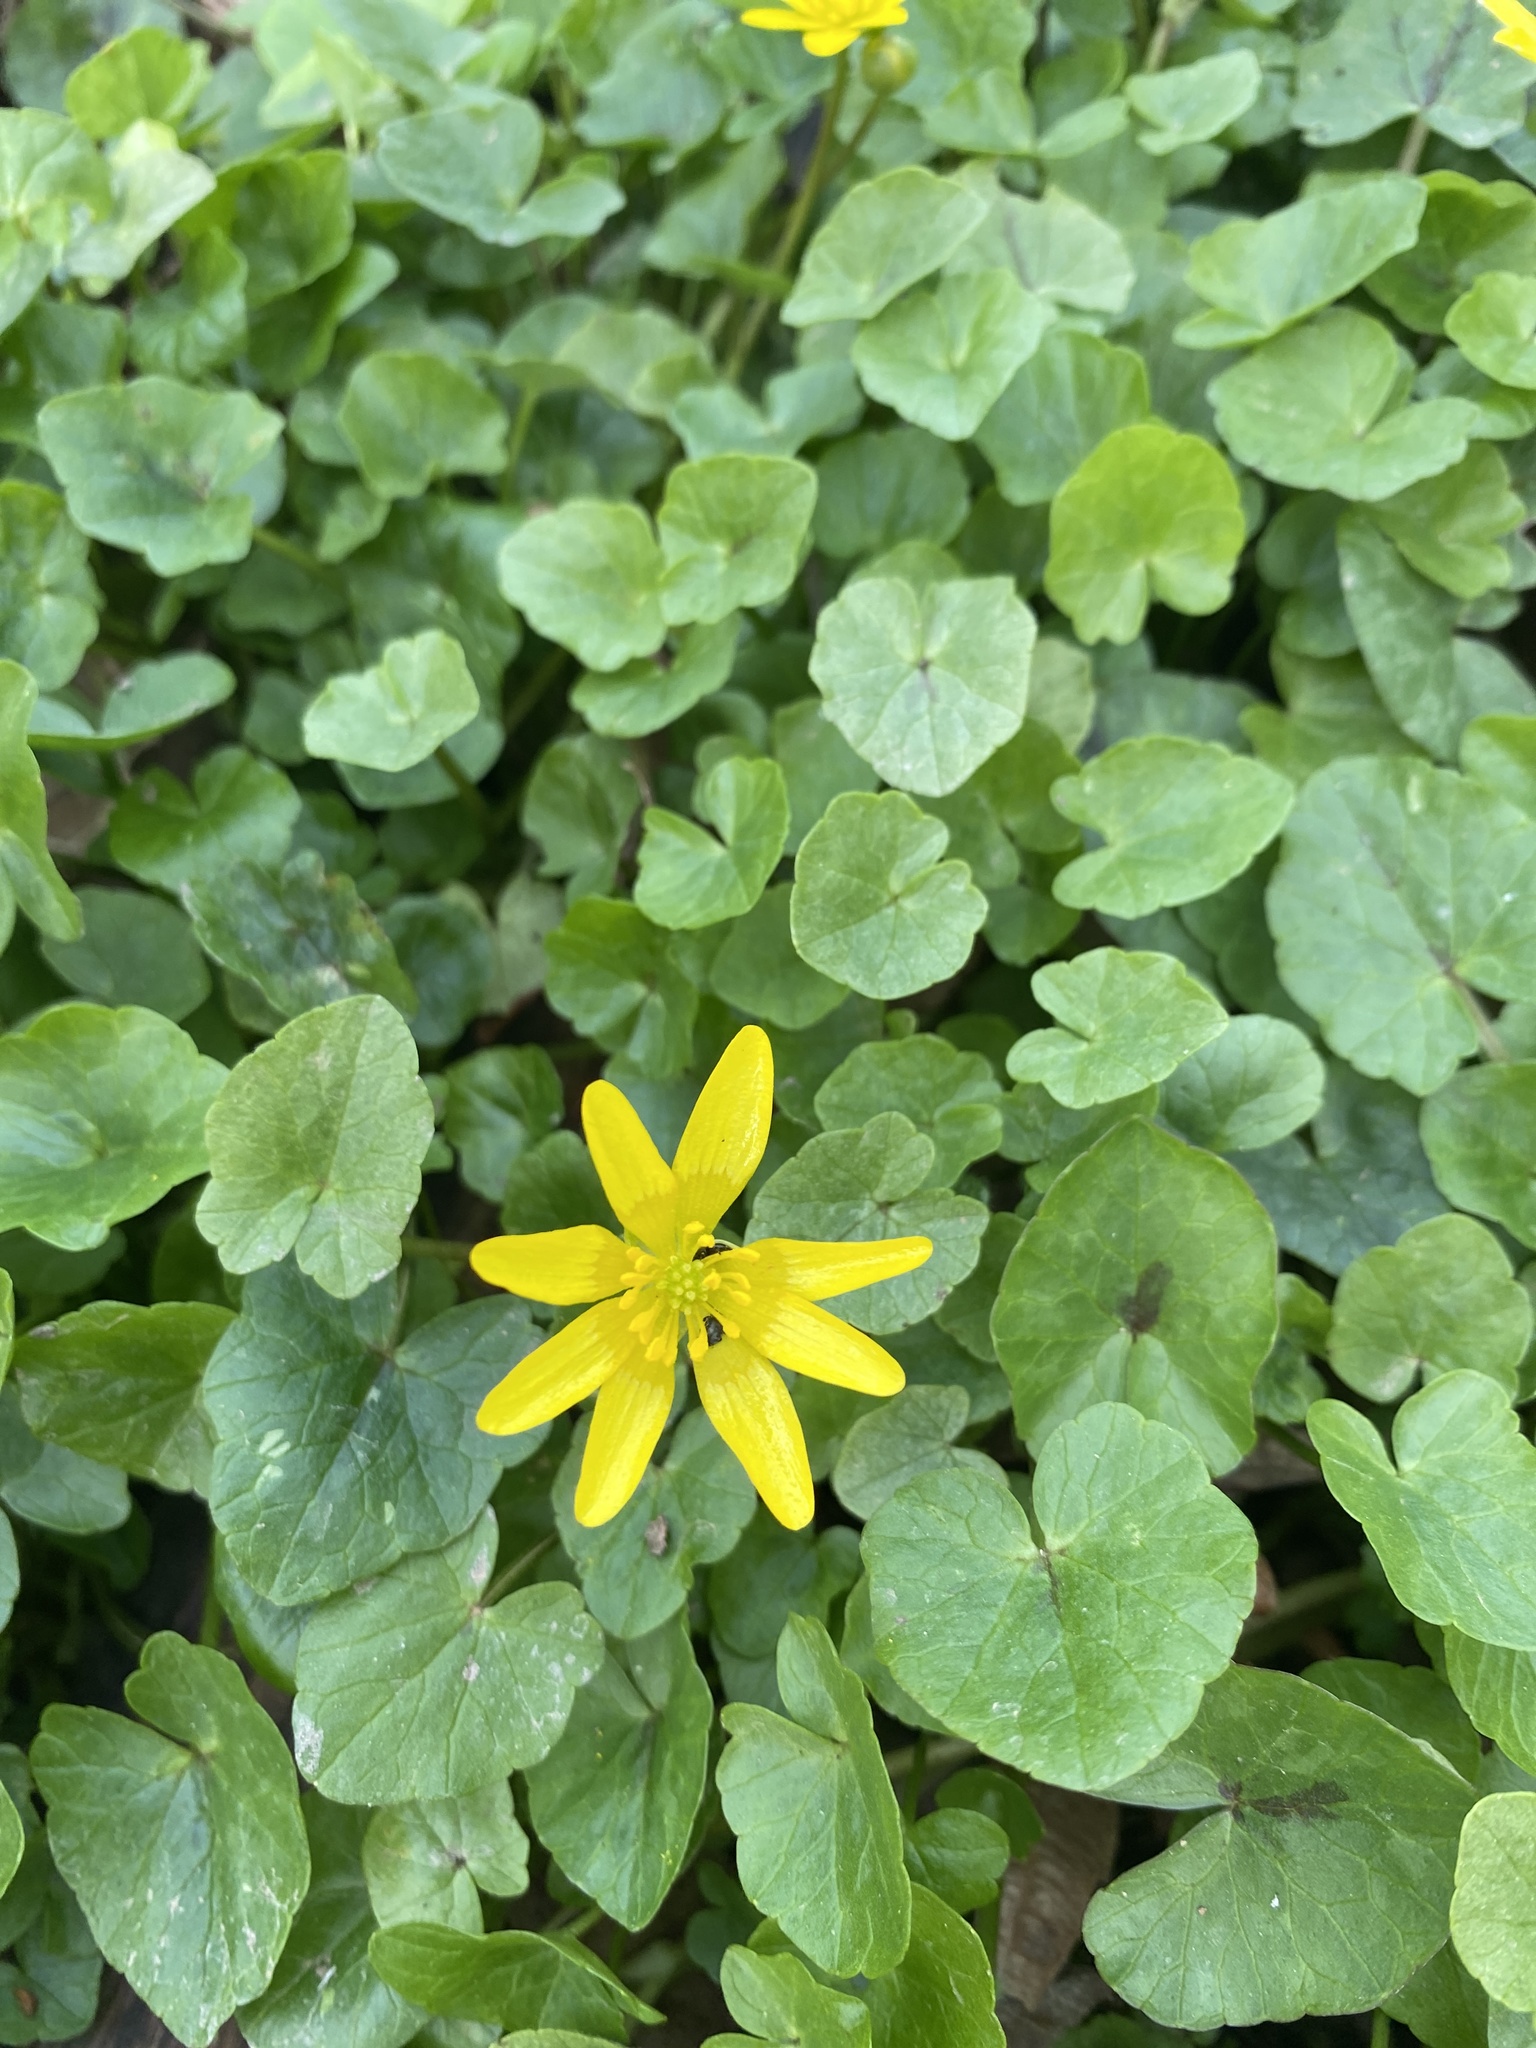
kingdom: Plantae
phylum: Tracheophyta
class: Magnoliopsida
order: Ranunculales
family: Ranunculaceae
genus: Ficaria
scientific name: Ficaria verna
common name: Lesser celandine
